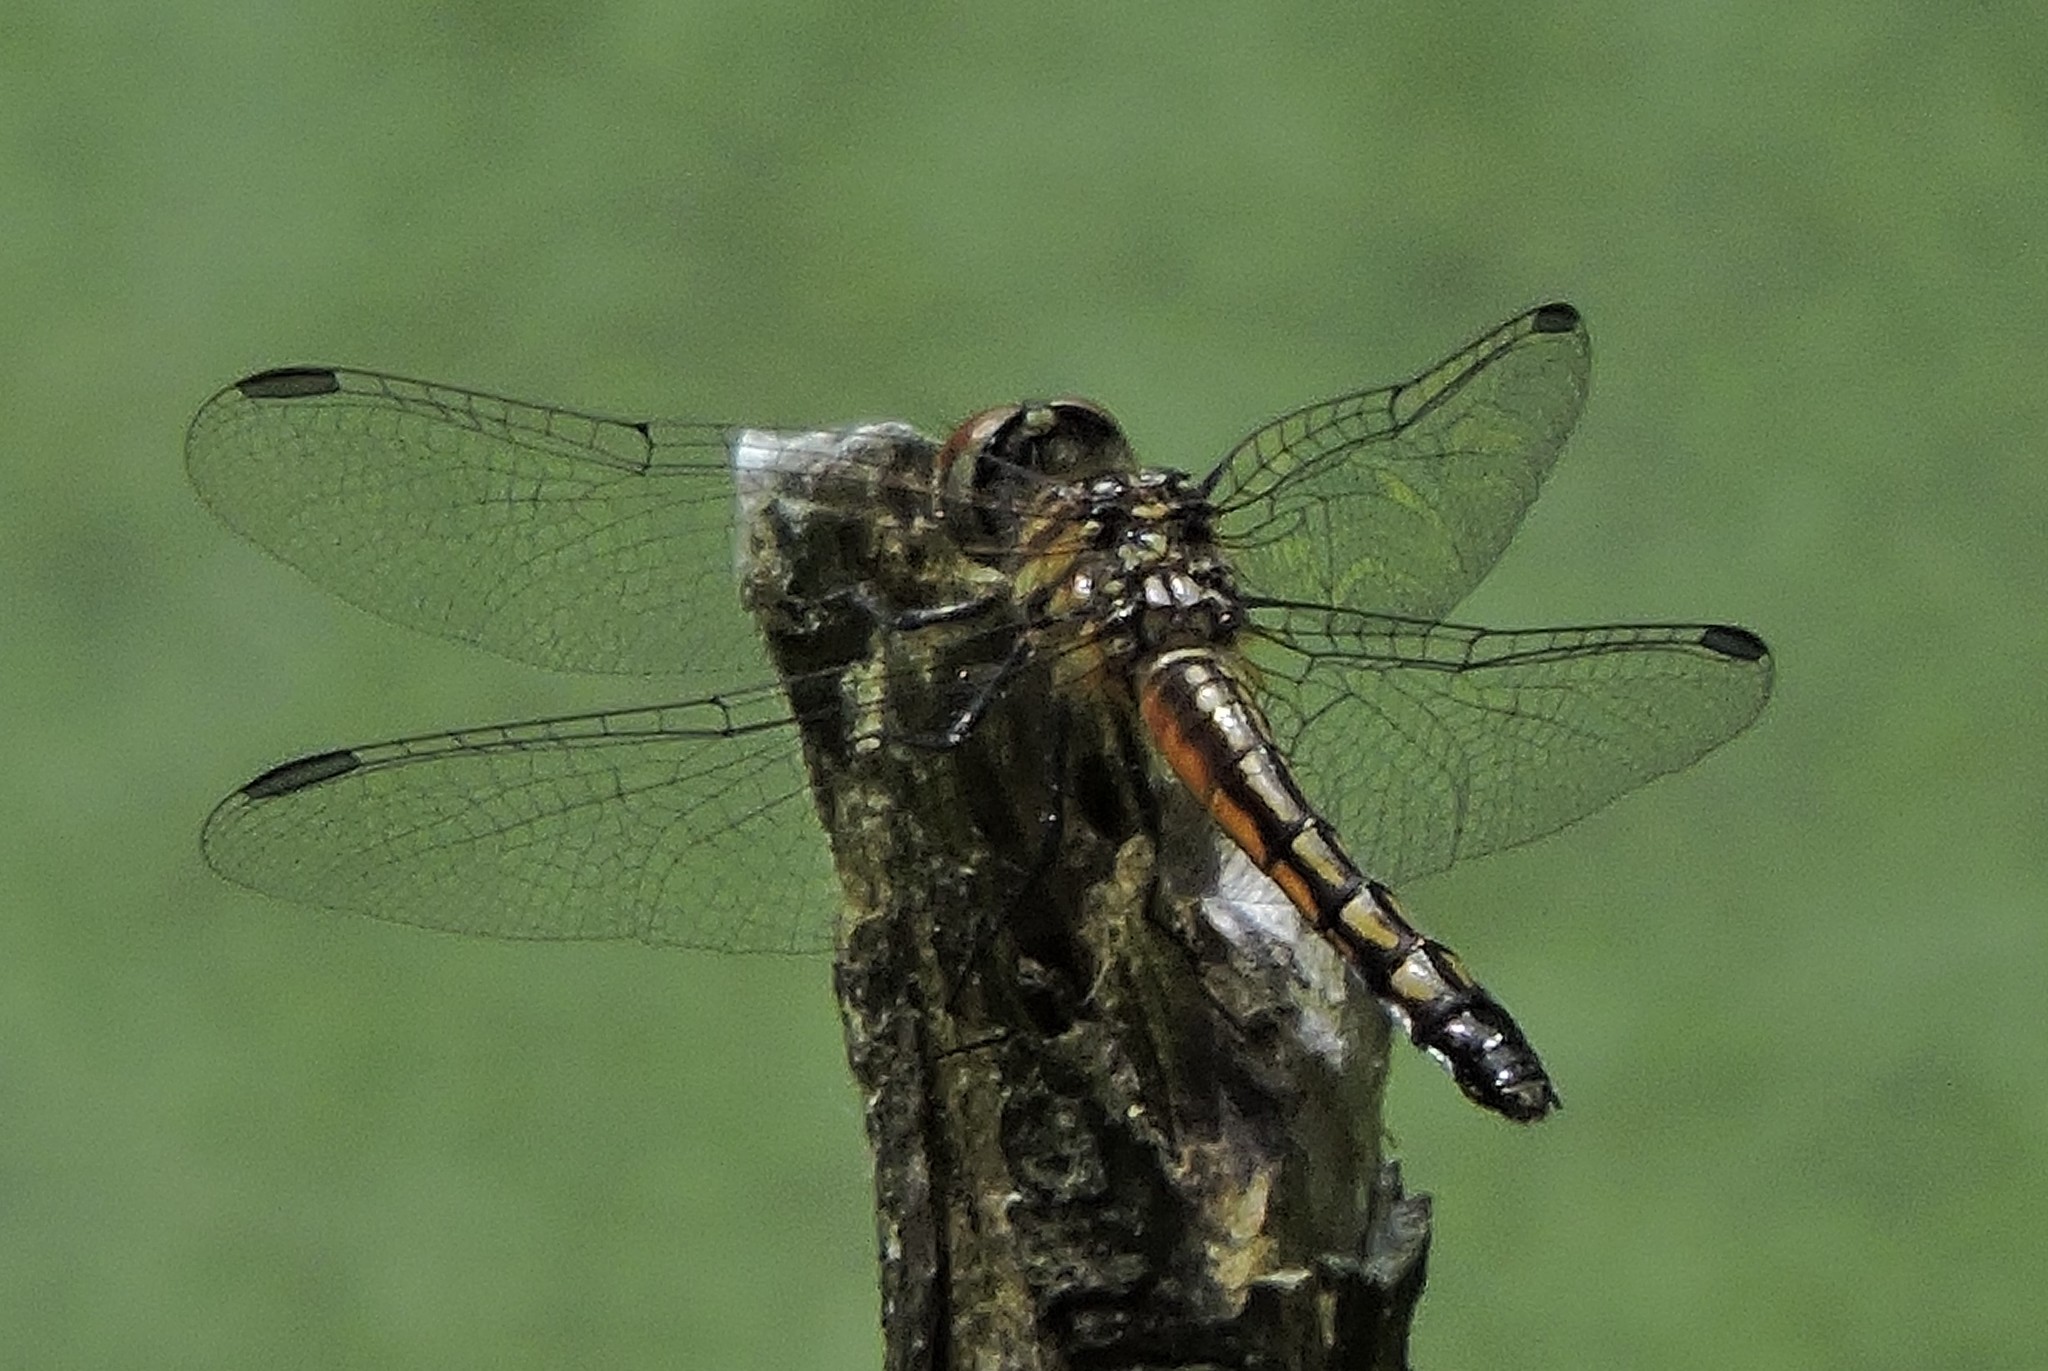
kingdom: Animalia
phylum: Arthropoda
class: Insecta
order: Odonata
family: Libellulidae
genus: Pachydiplax
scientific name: Pachydiplax longipennis
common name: Blue dasher
